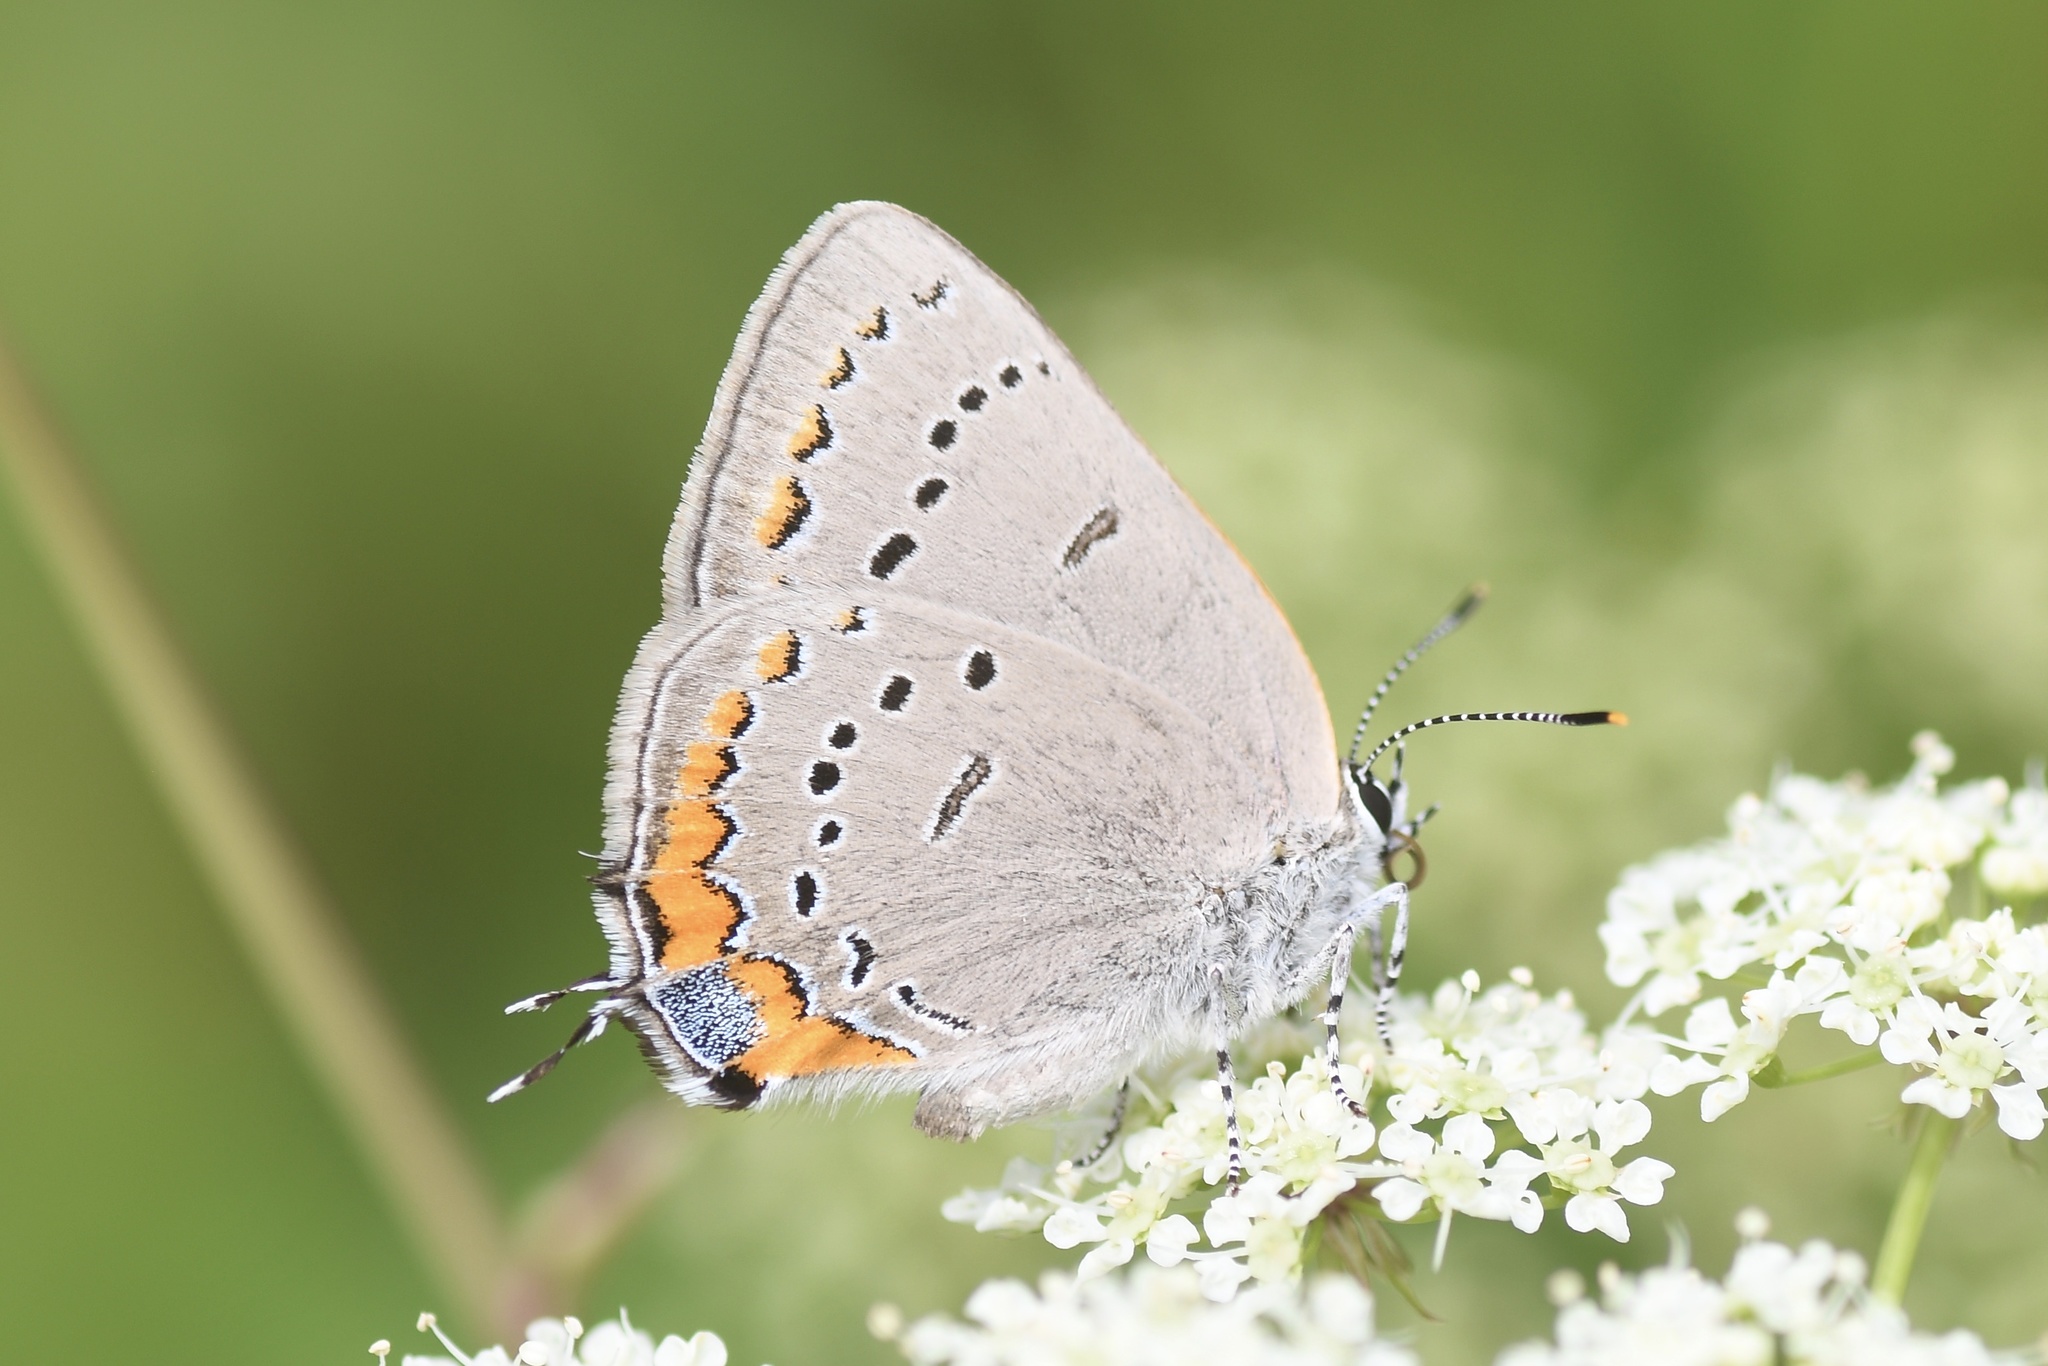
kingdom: Animalia
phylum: Arthropoda
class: Insecta
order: Lepidoptera
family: Lycaenidae
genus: Strymon
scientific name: Strymon acadica
